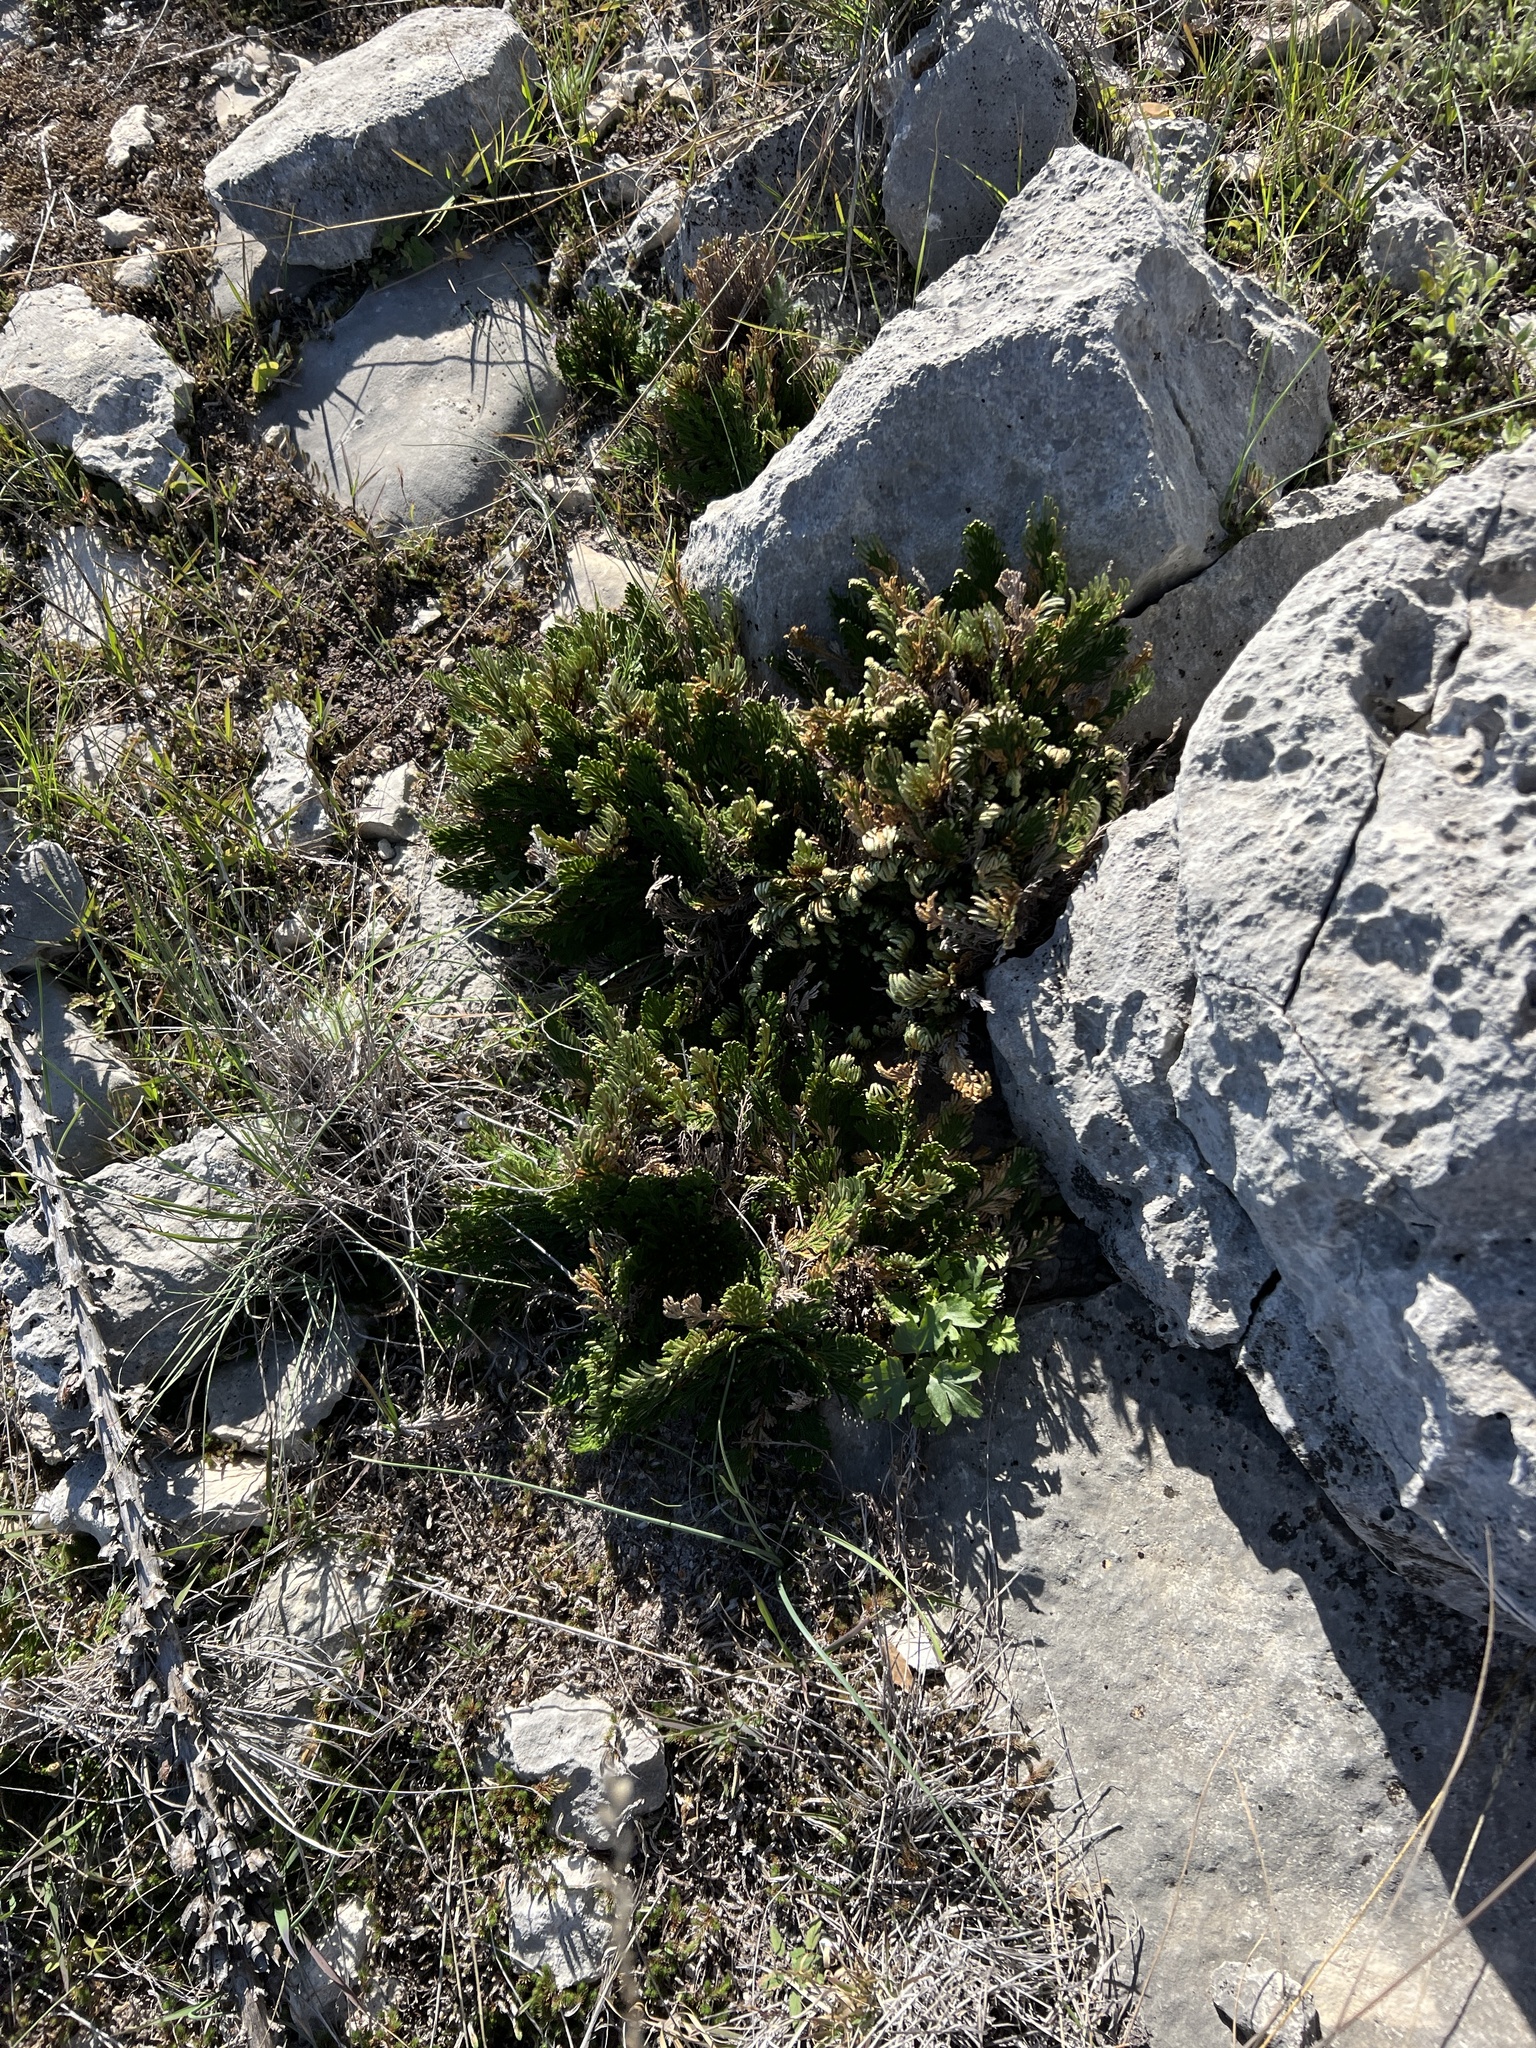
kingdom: Plantae
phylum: Tracheophyta
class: Lycopodiopsida
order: Selaginellales
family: Selaginellaceae
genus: Selaginella
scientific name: Selaginella lepidophylla
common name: Rose-of-jericho
